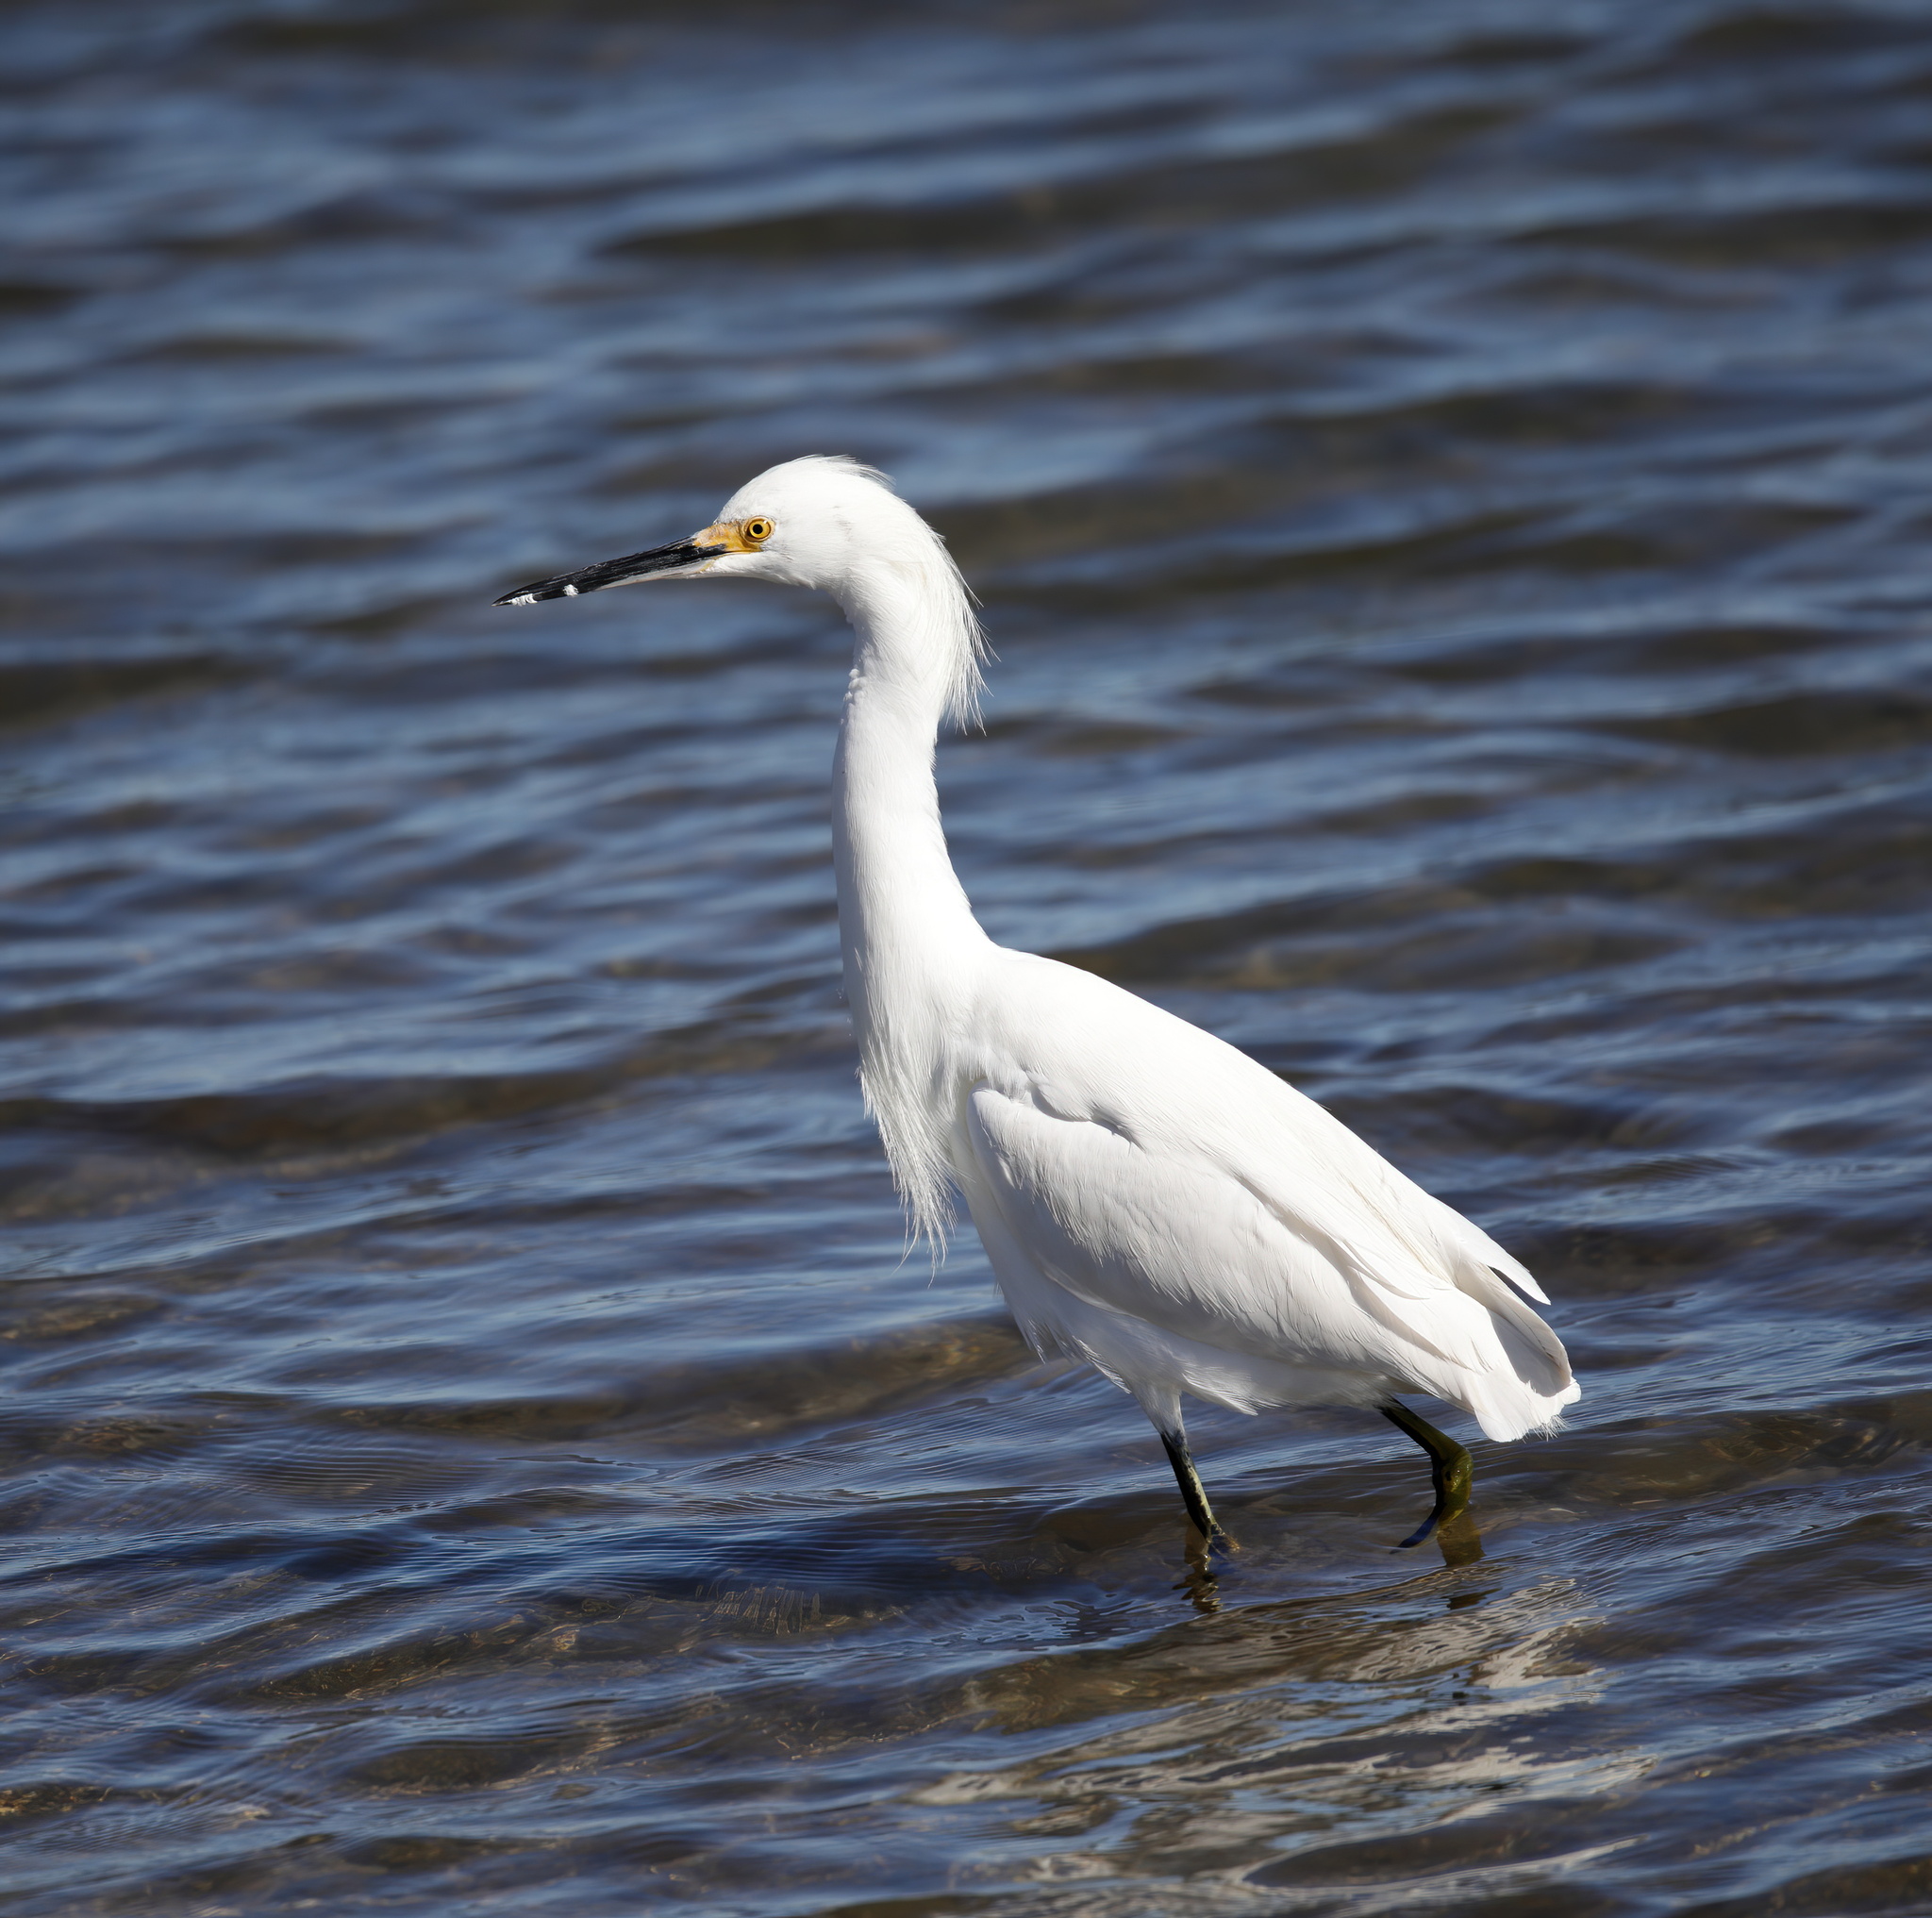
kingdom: Animalia
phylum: Chordata
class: Aves
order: Pelecaniformes
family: Ardeidae
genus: Egretta
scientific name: Egretta thula
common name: Snowy egret
